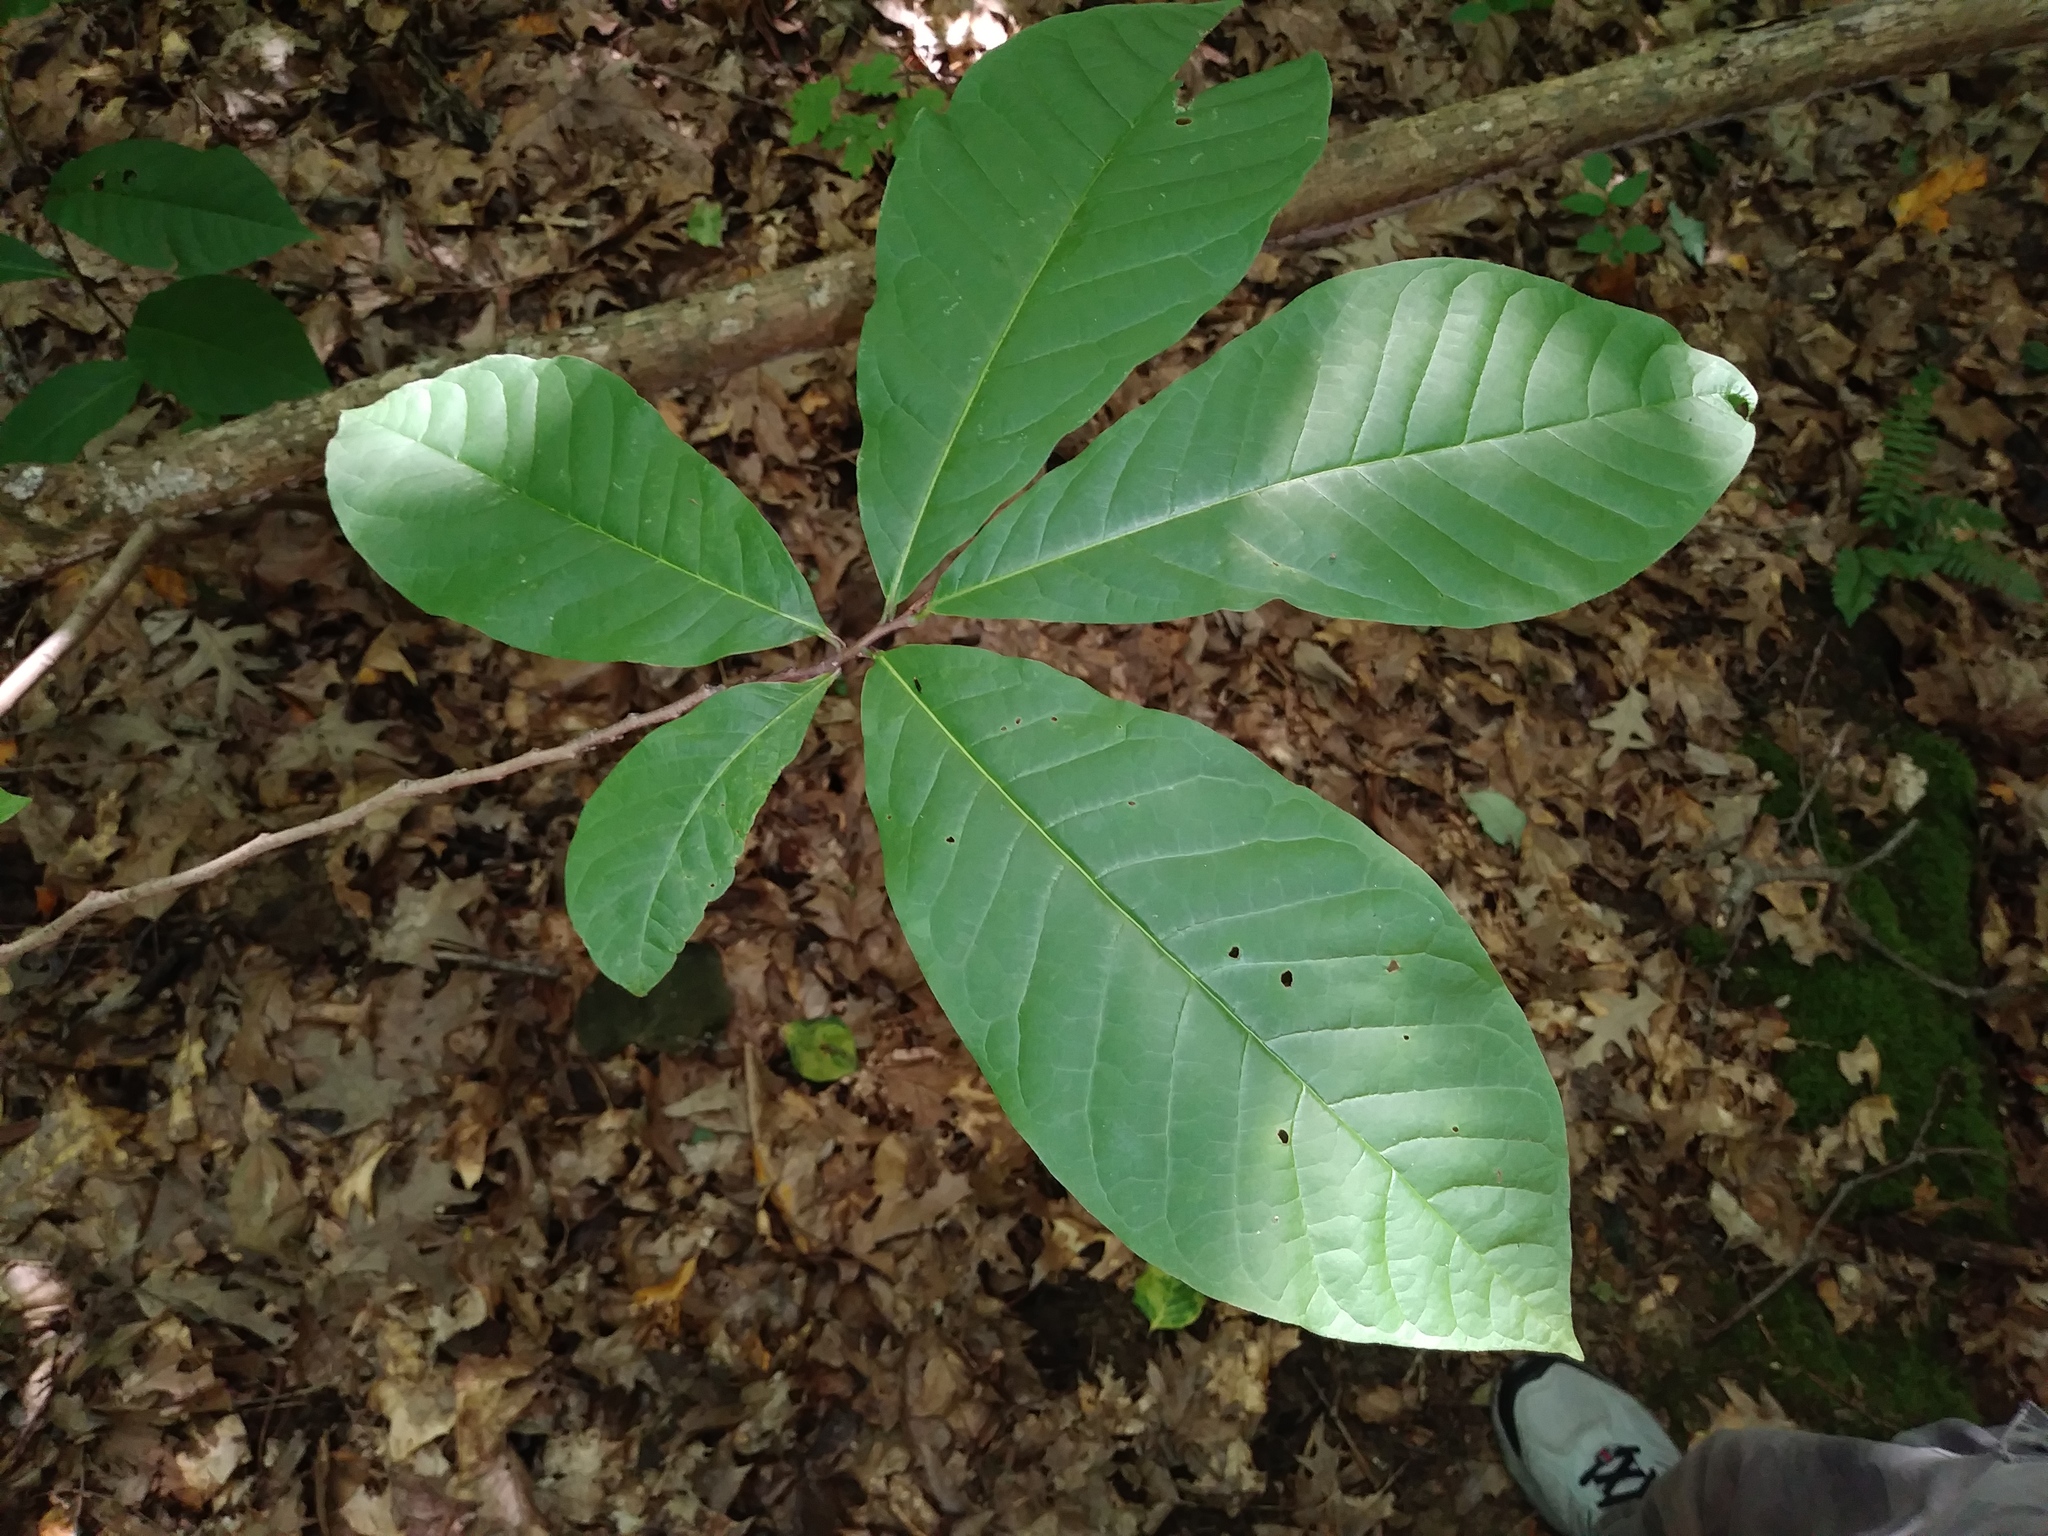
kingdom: Plantae
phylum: Tracheophyta
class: Magnoliopsida
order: Magnoliales
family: Annonaceae
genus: Asimina
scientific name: Asimina triloba
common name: Dog-banana
